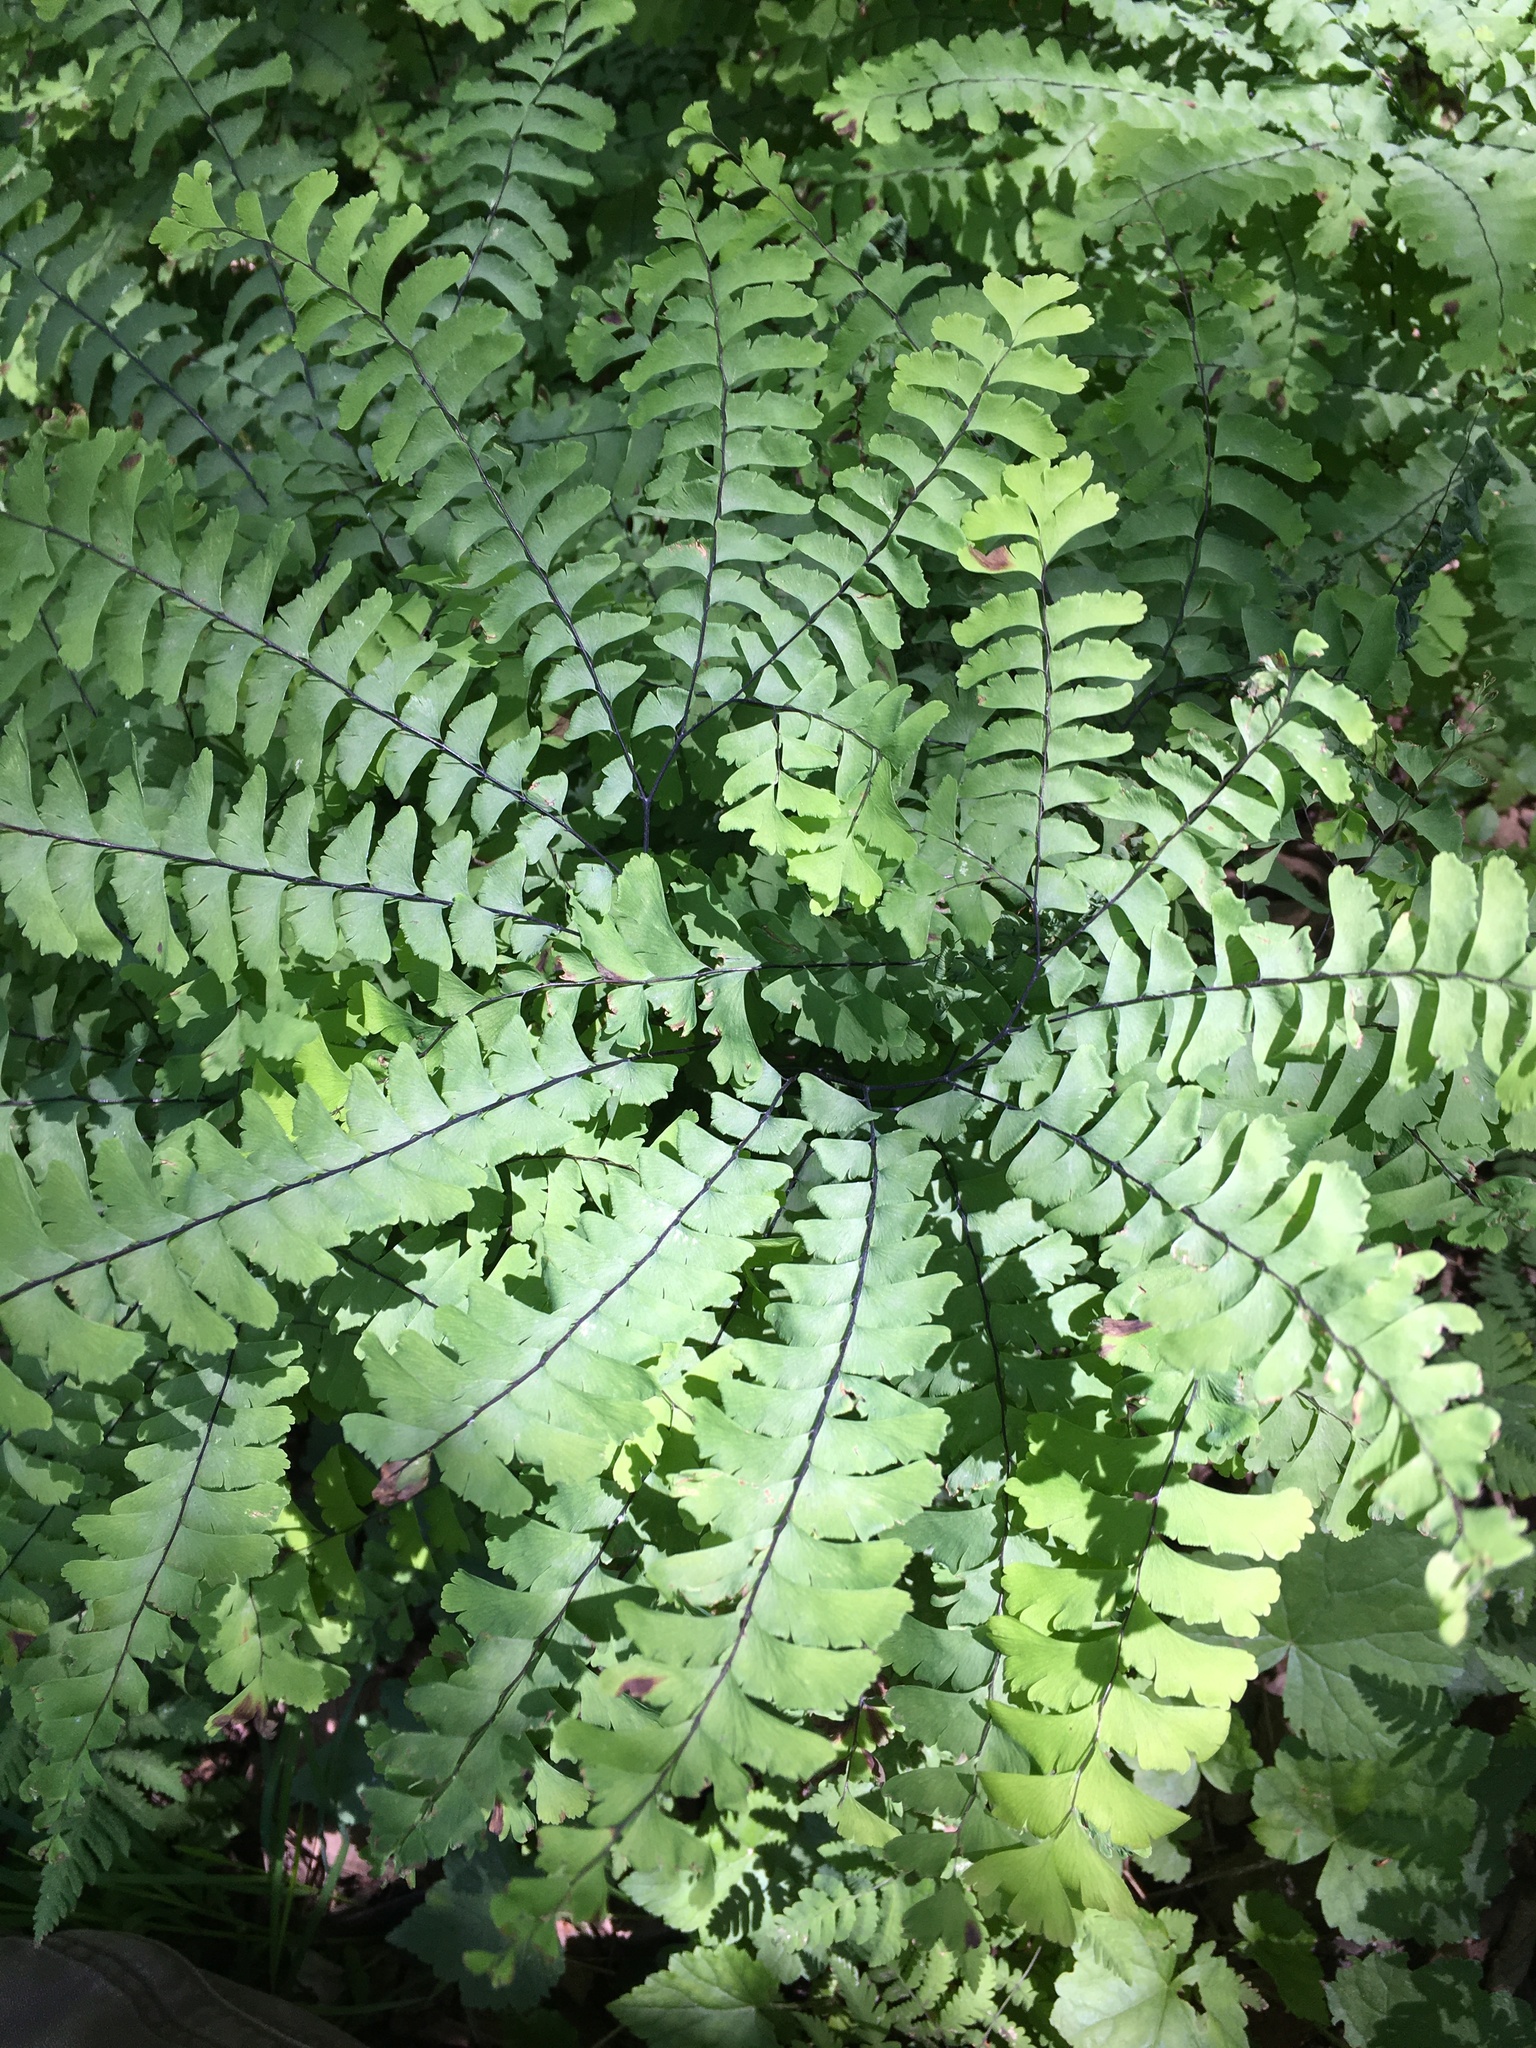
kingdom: Plantae
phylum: Tracheophyta
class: Polypodiopsida
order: Polypodiales
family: Pteridaceae
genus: Adiantum
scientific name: Adiantum pedatum
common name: Five-finger fern
